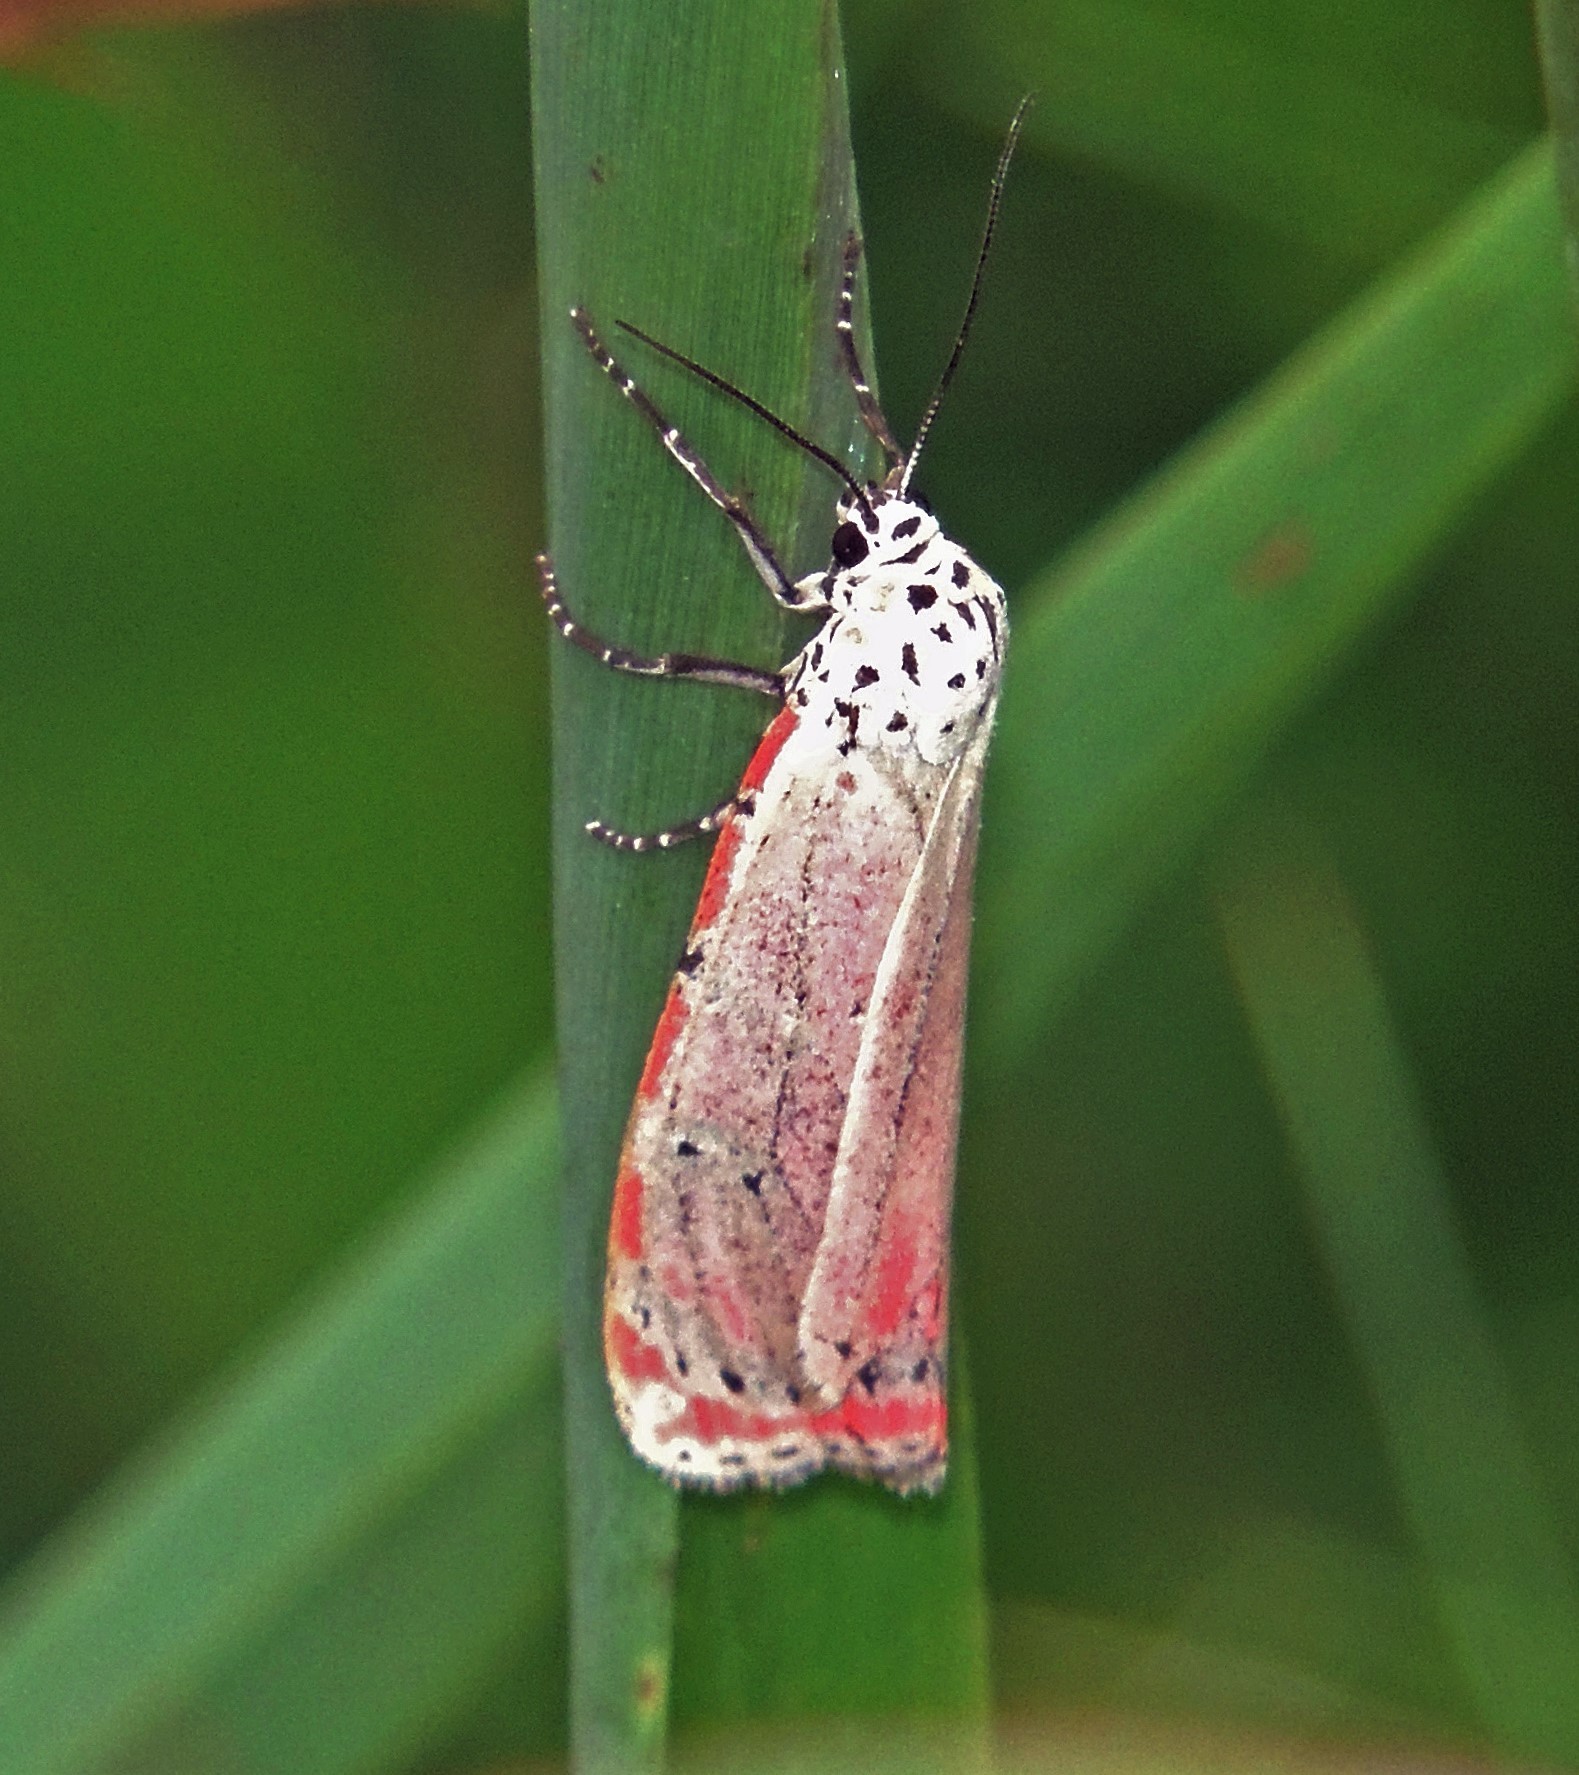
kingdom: Animalia
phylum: Arthropoda
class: Insecta
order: Lepidoptera
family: Erebidae
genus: Utetheisa
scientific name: Utetheisa ornatrix
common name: Beautiful utetheisa
